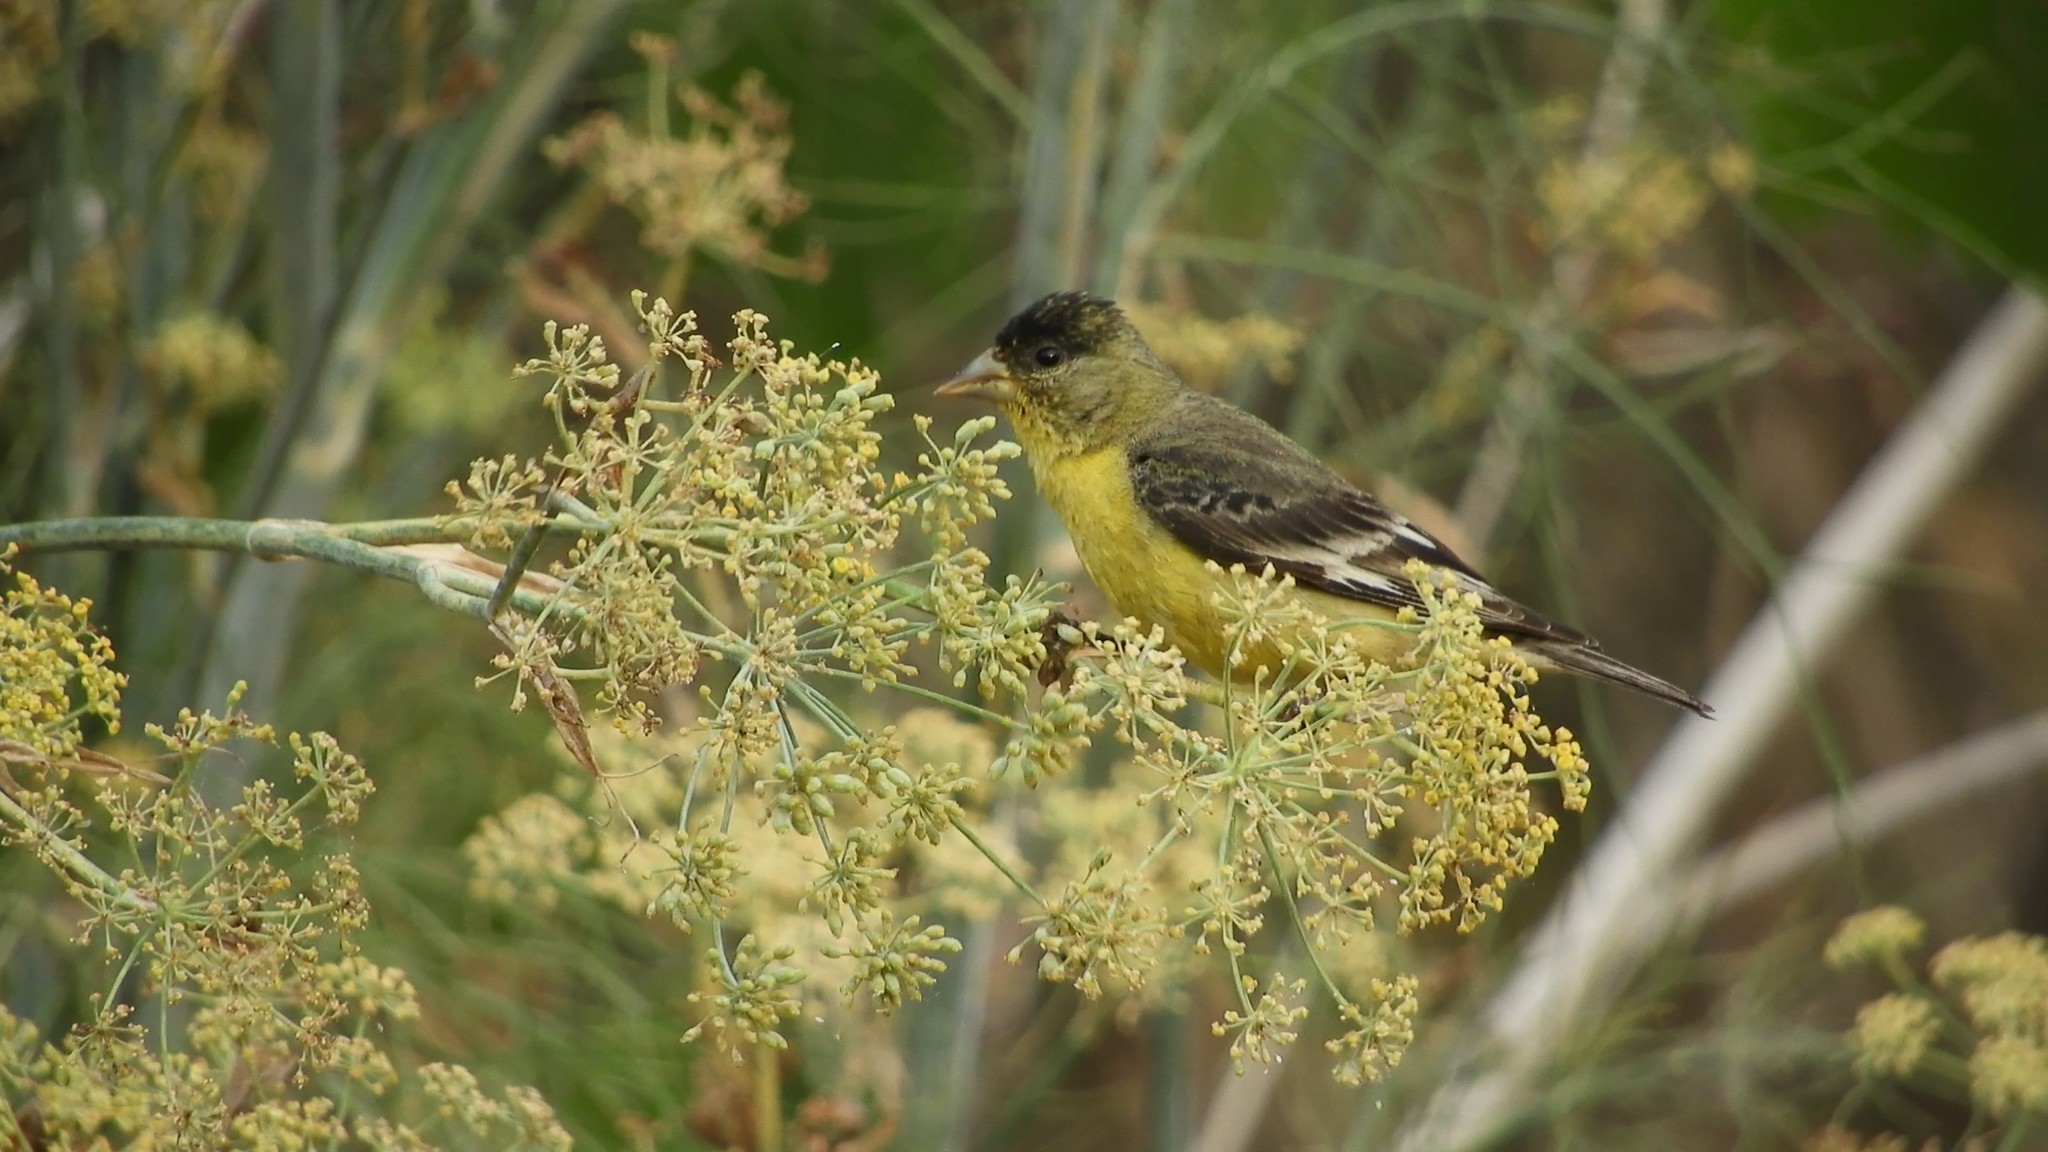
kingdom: Animalia
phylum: Chordata
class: Aves
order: Passeriformes
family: Fringillidae
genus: Spinus
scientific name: Spinus psaltria
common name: Lesser goldfinch
